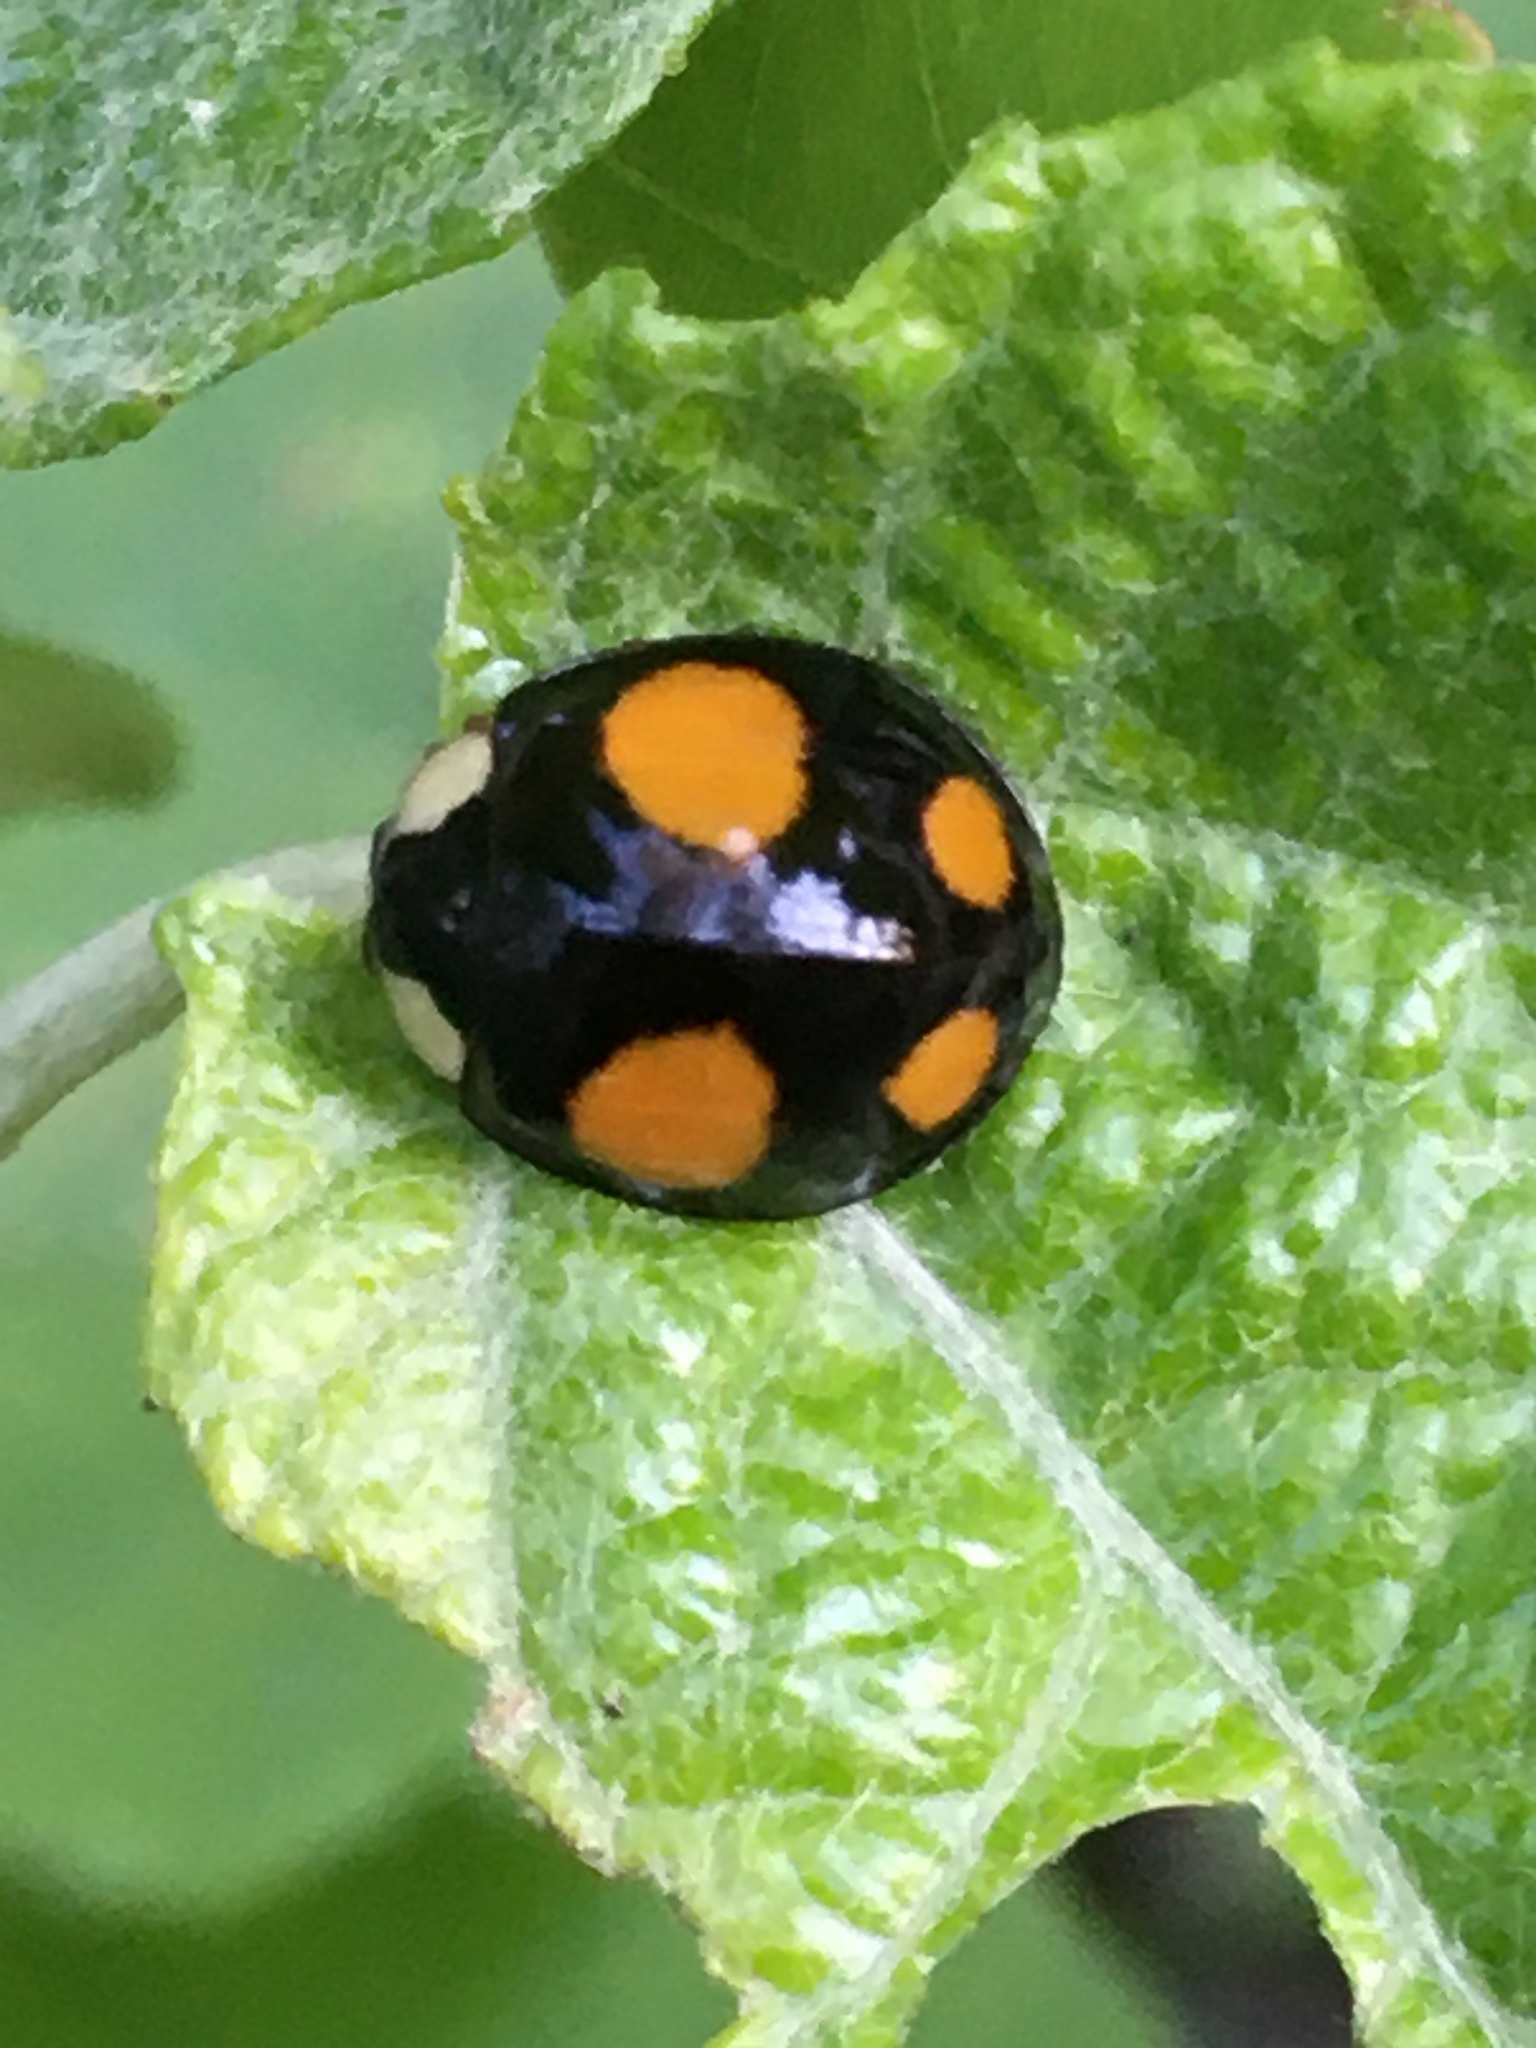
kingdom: Animalia
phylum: Arthropoda
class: Insecta
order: Coleoptera
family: Coccinellidae
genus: Harmonia
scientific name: Harmonia axyridis
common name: Harlequin ladybird
